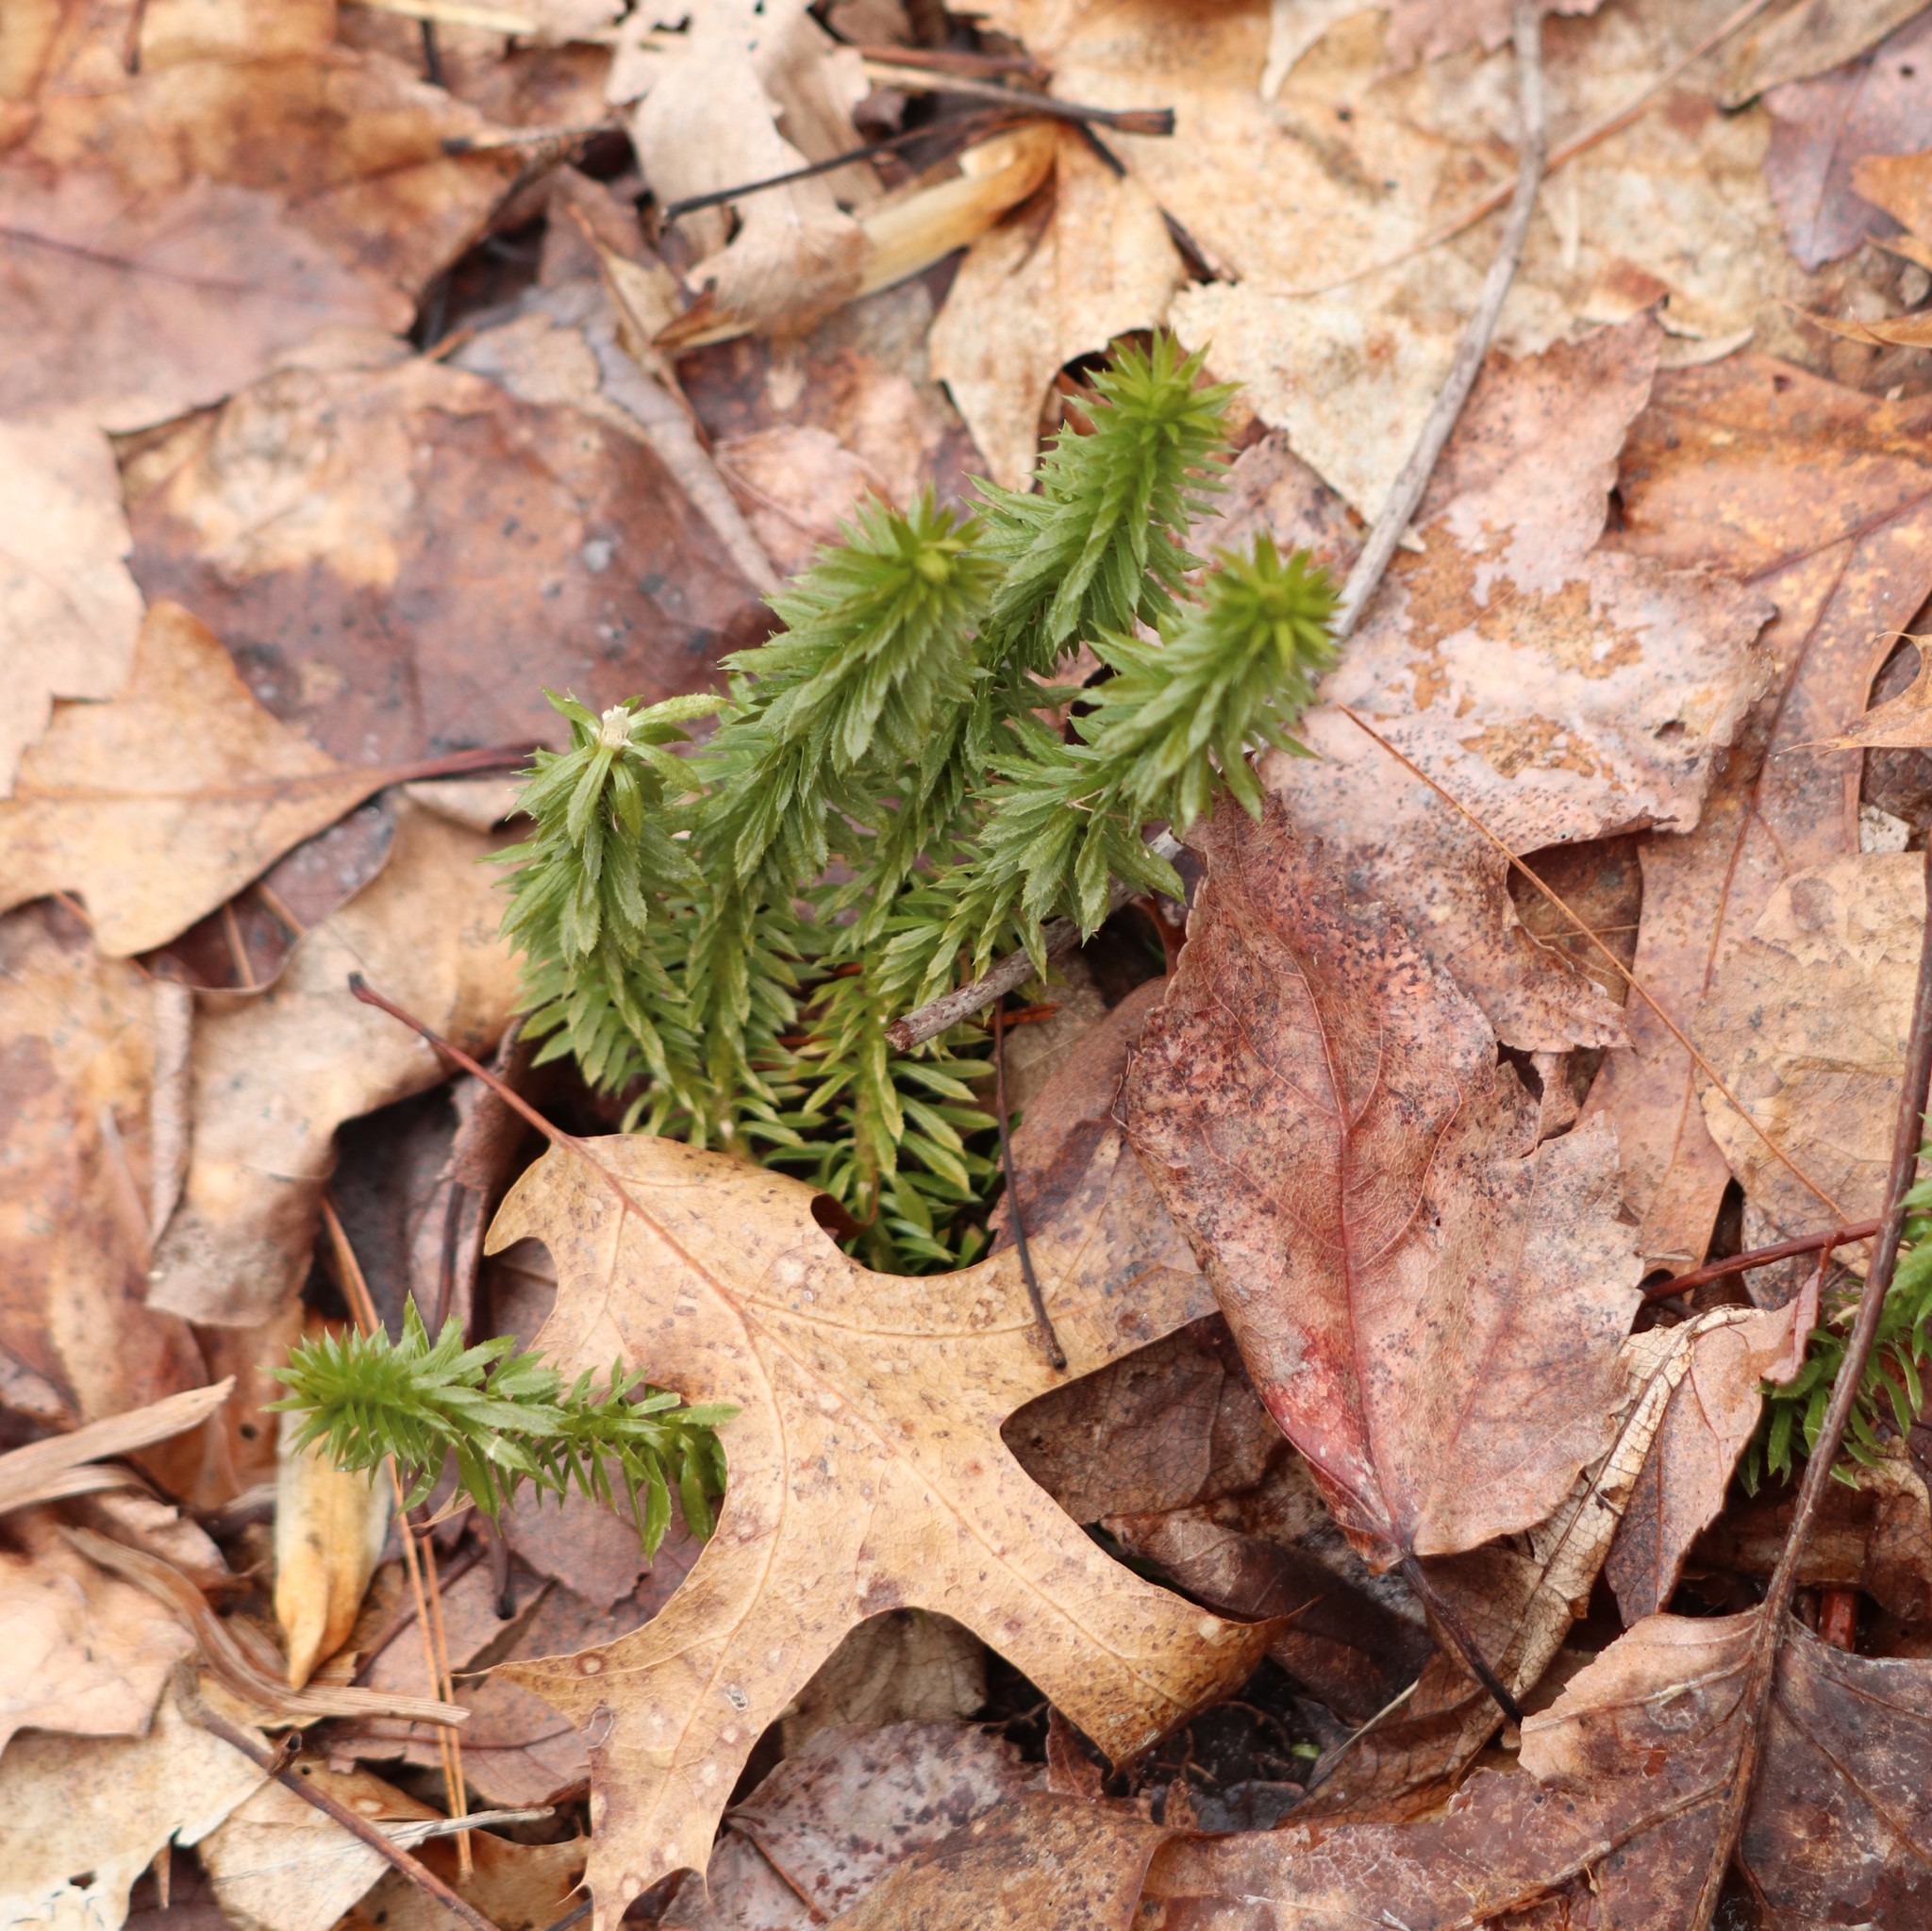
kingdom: Plantae
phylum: Tracheophyta
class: Lycopodiopsida
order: Lycopodiales
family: Lycopodiaceae
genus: Huperzia
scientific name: Huperzia lucidula
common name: Shining clubmoss
